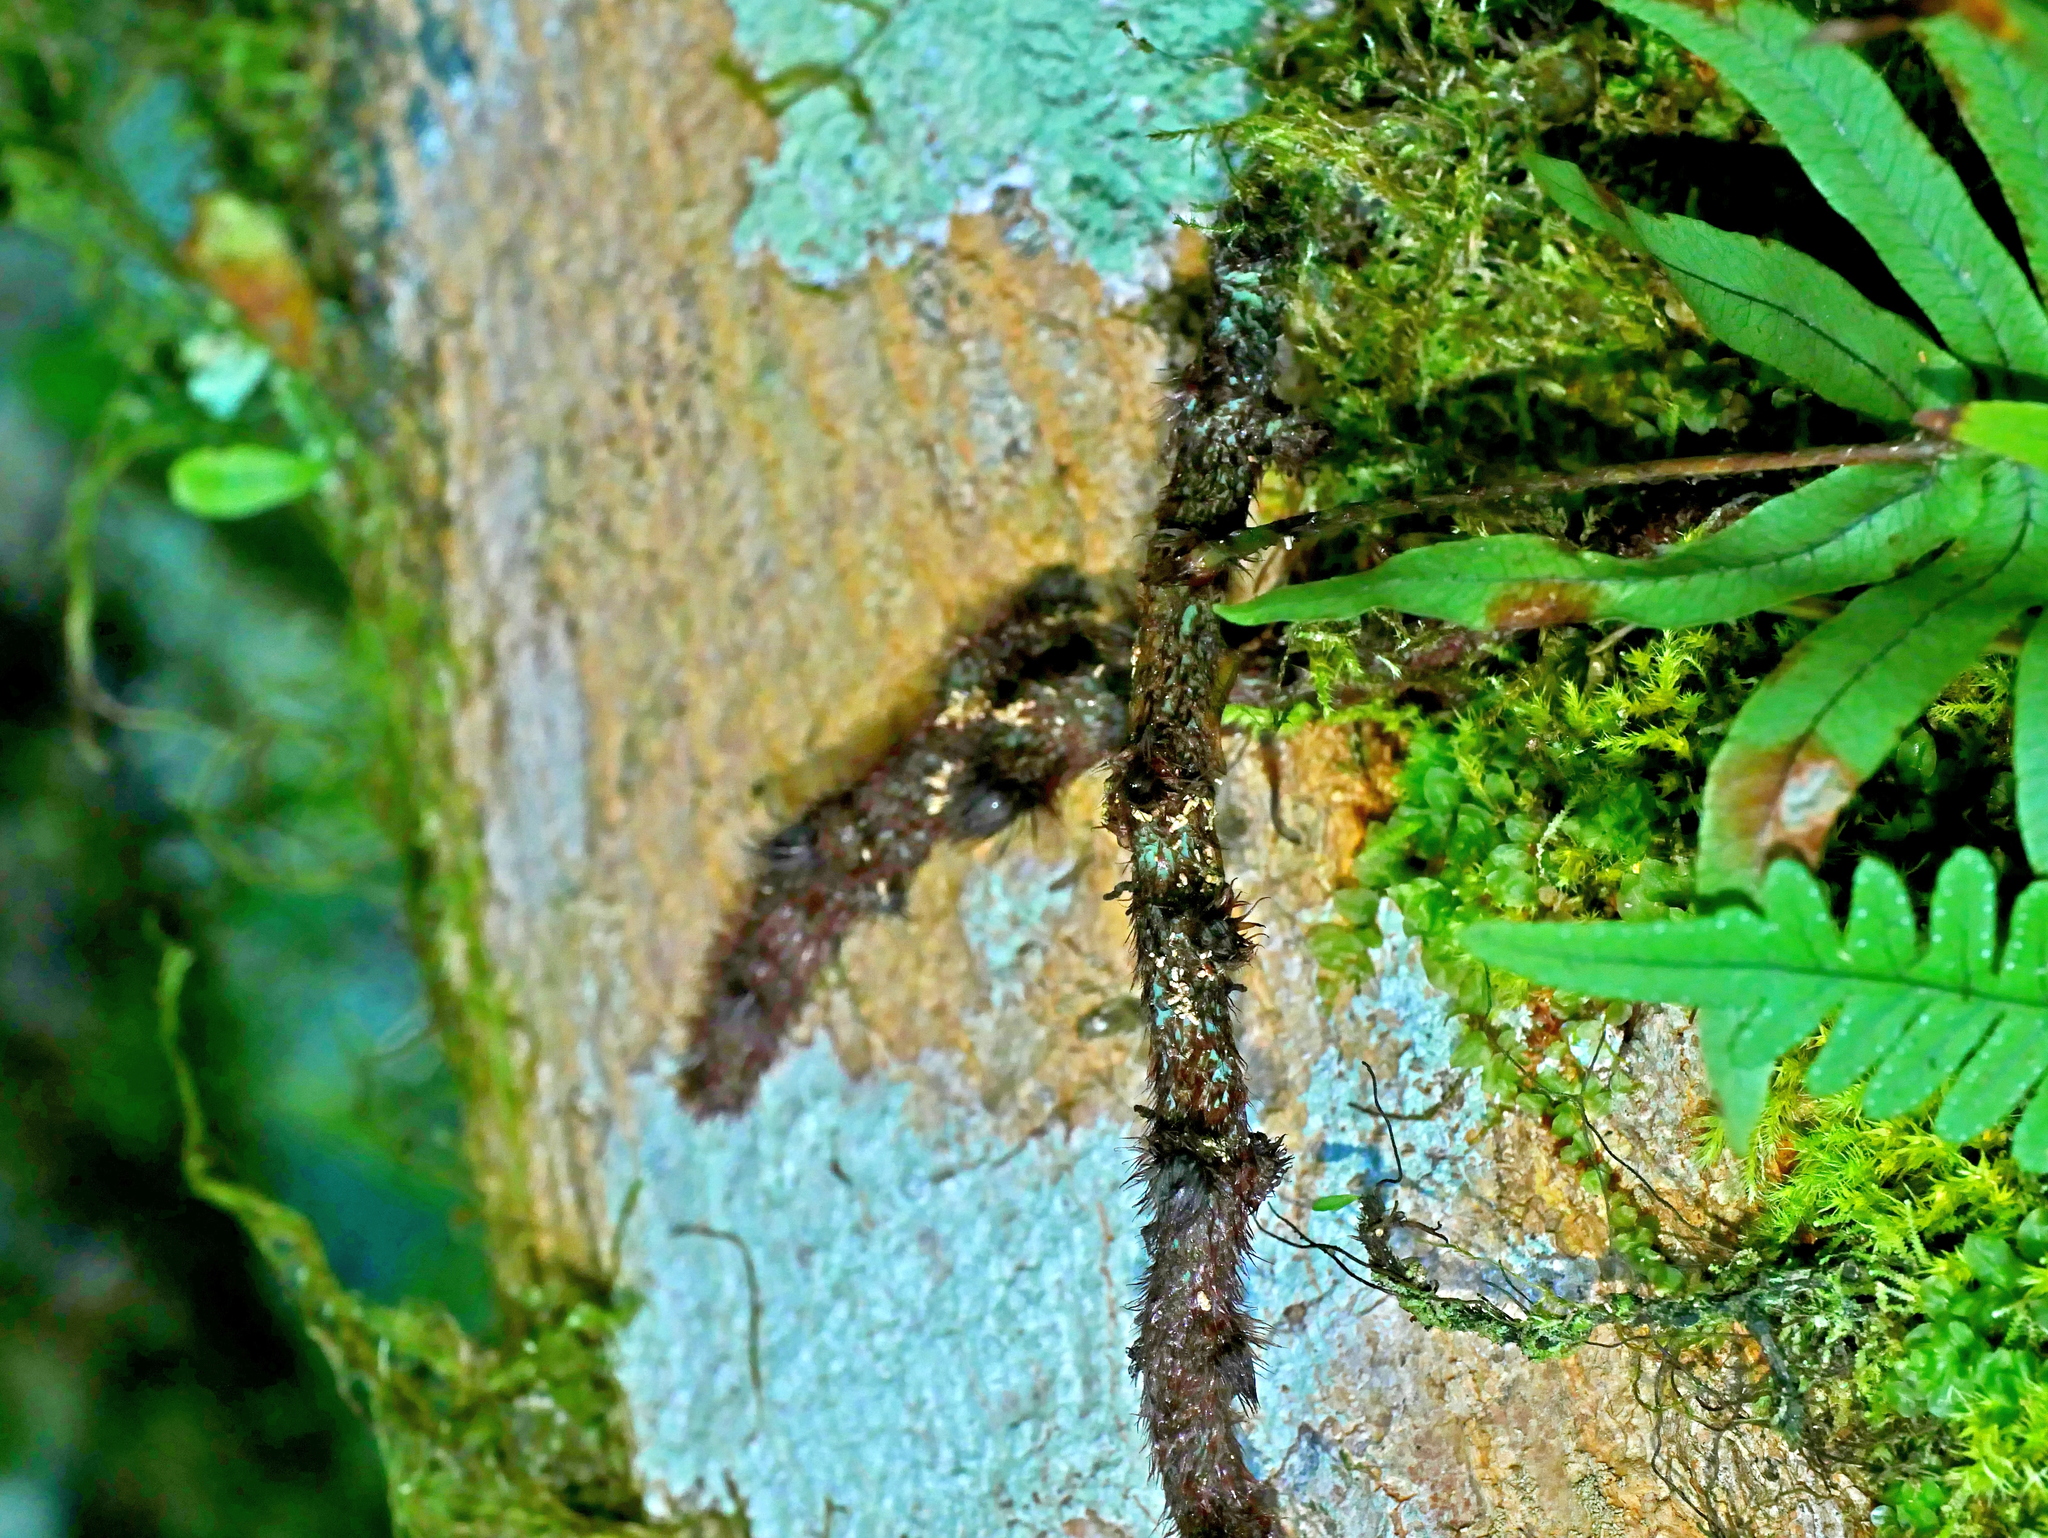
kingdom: Plantae
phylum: Tracheophyta
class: Polypodiopsida
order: Polypodiales
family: Polypodiaceae
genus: Goniophlebium
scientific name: Goniophlebium amoenum
